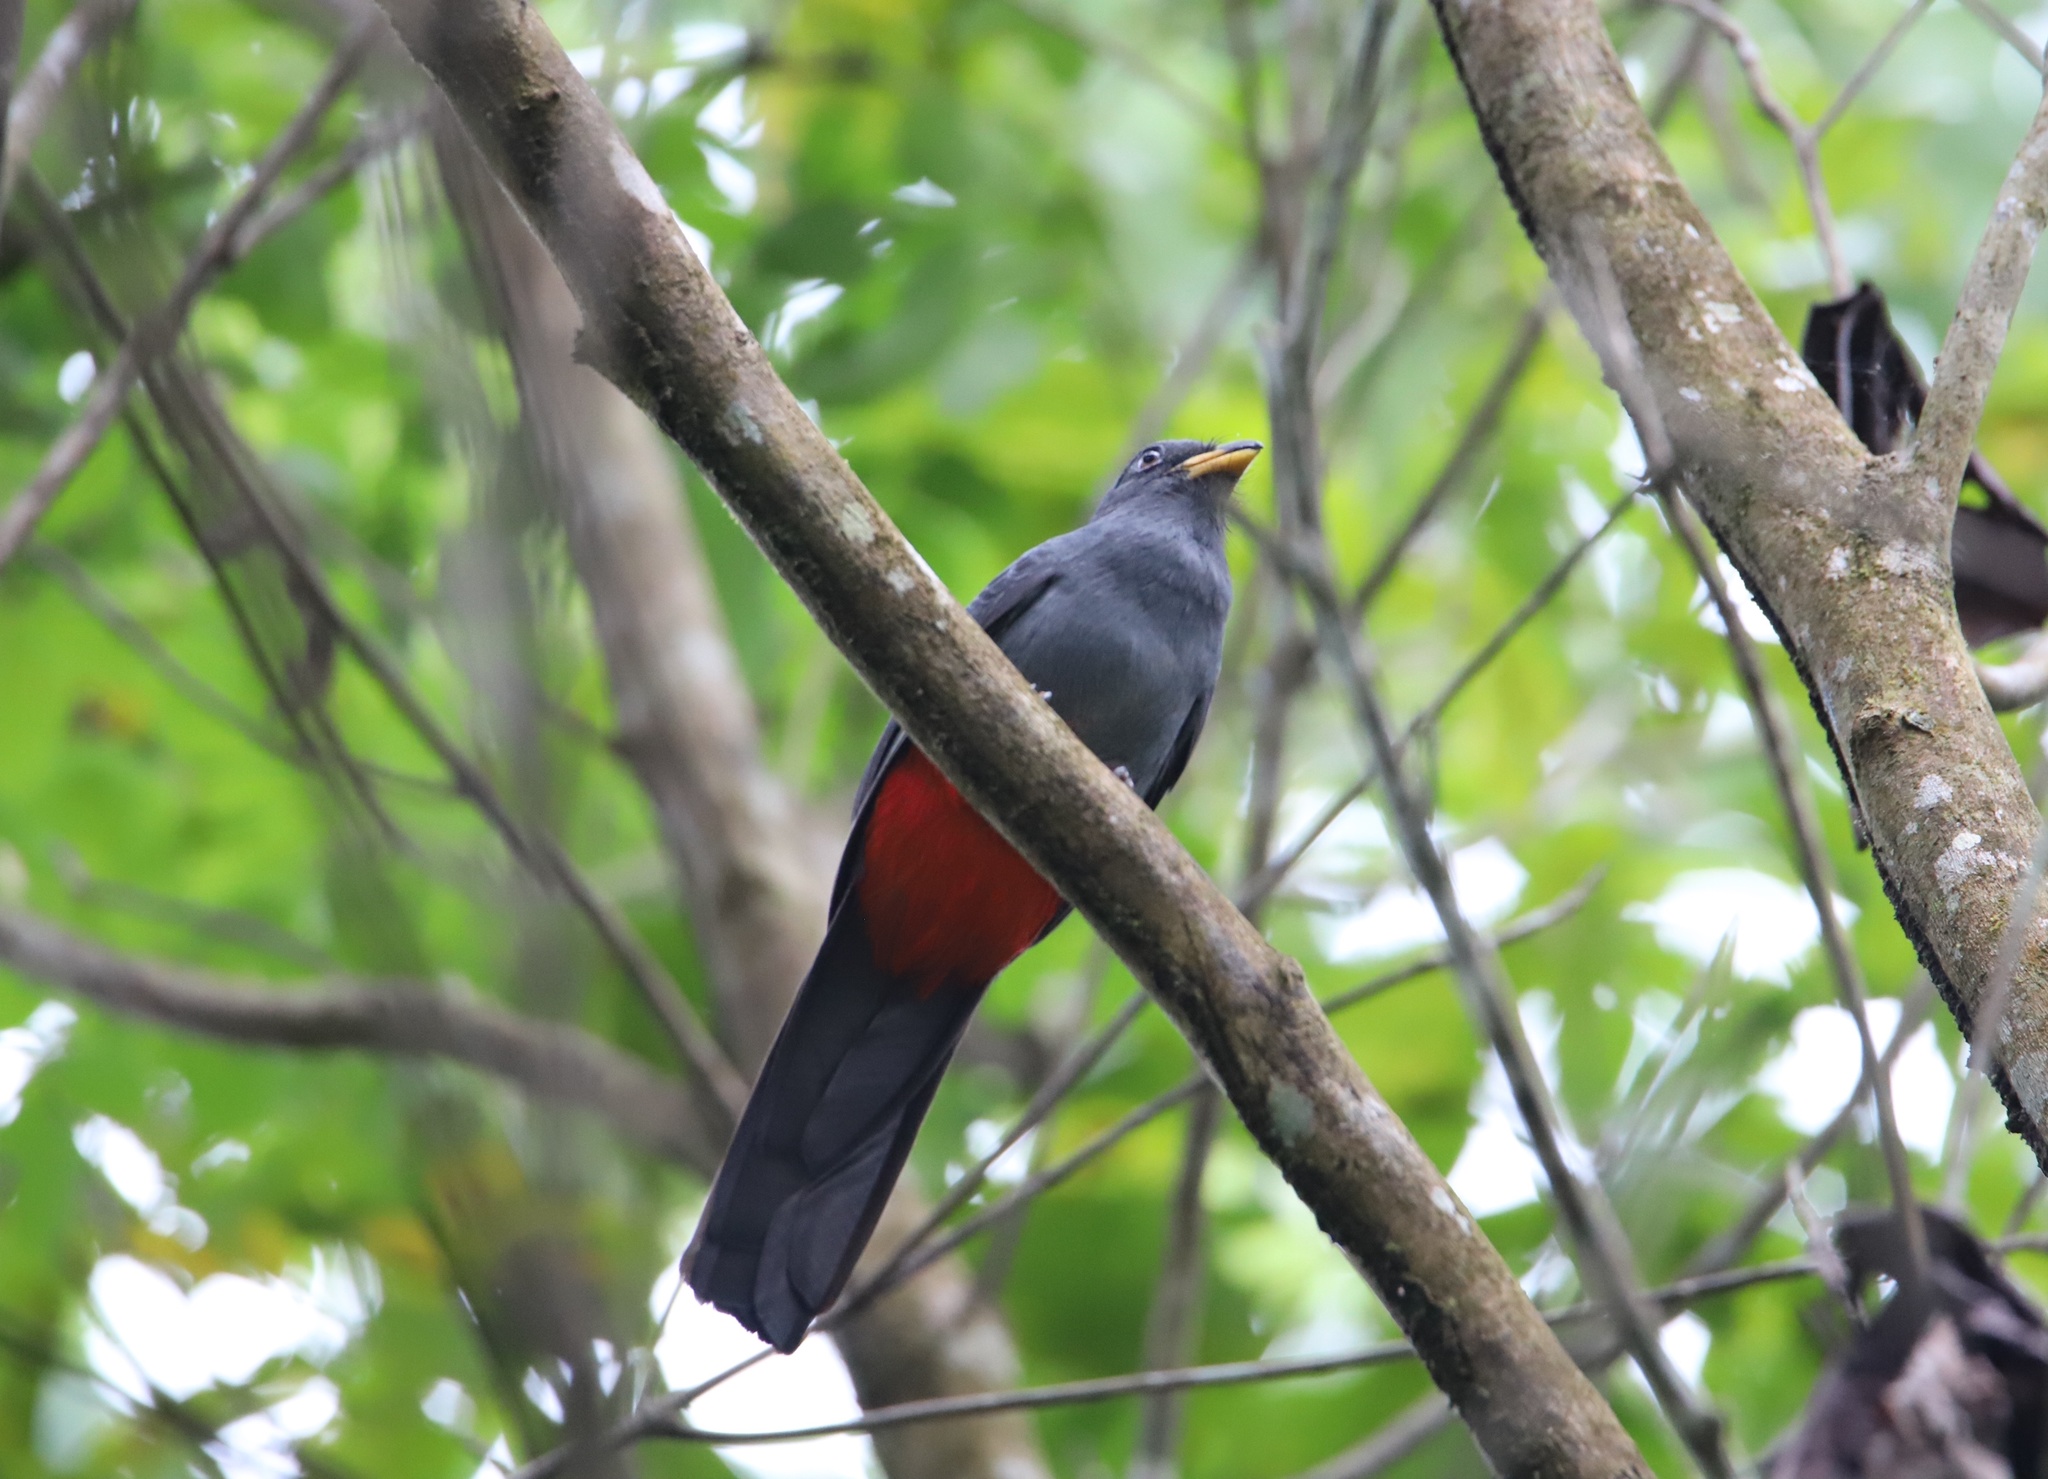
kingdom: Animalia
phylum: Chordata
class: Aves
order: Trogoniformes
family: Trogonidae
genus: Trogon
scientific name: Trogon melanurus
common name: Black-tailed trogon
